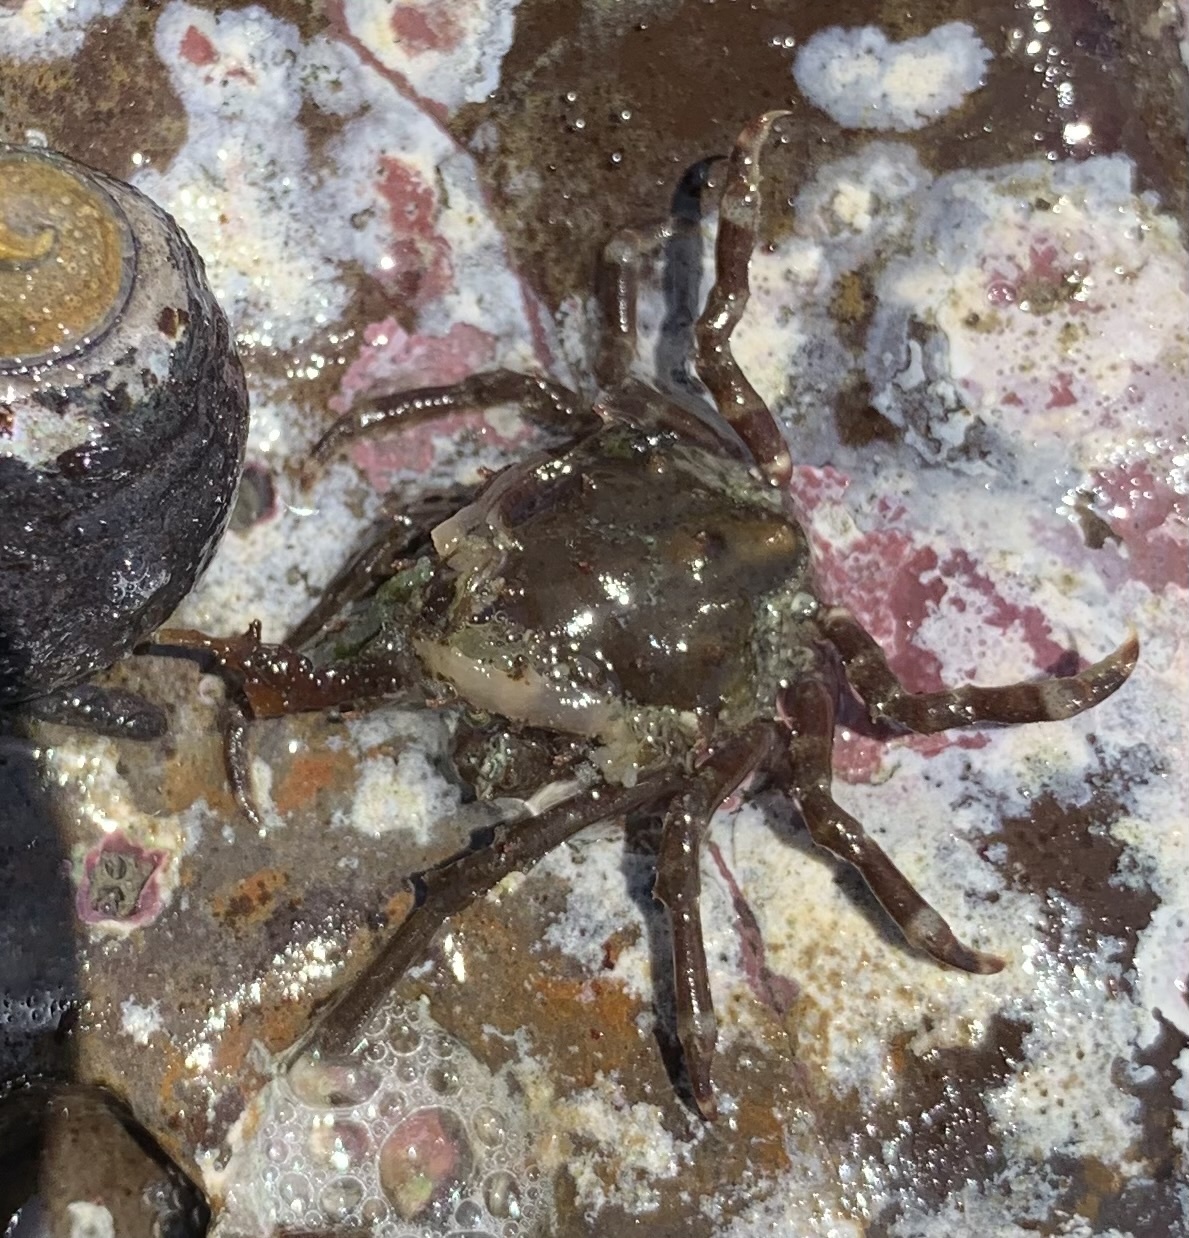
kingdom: Animalia
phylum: Arthropoda
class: Malacostraca
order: Decapoda
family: Epialtidae
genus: Pugettia
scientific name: Pugettia gracilis
